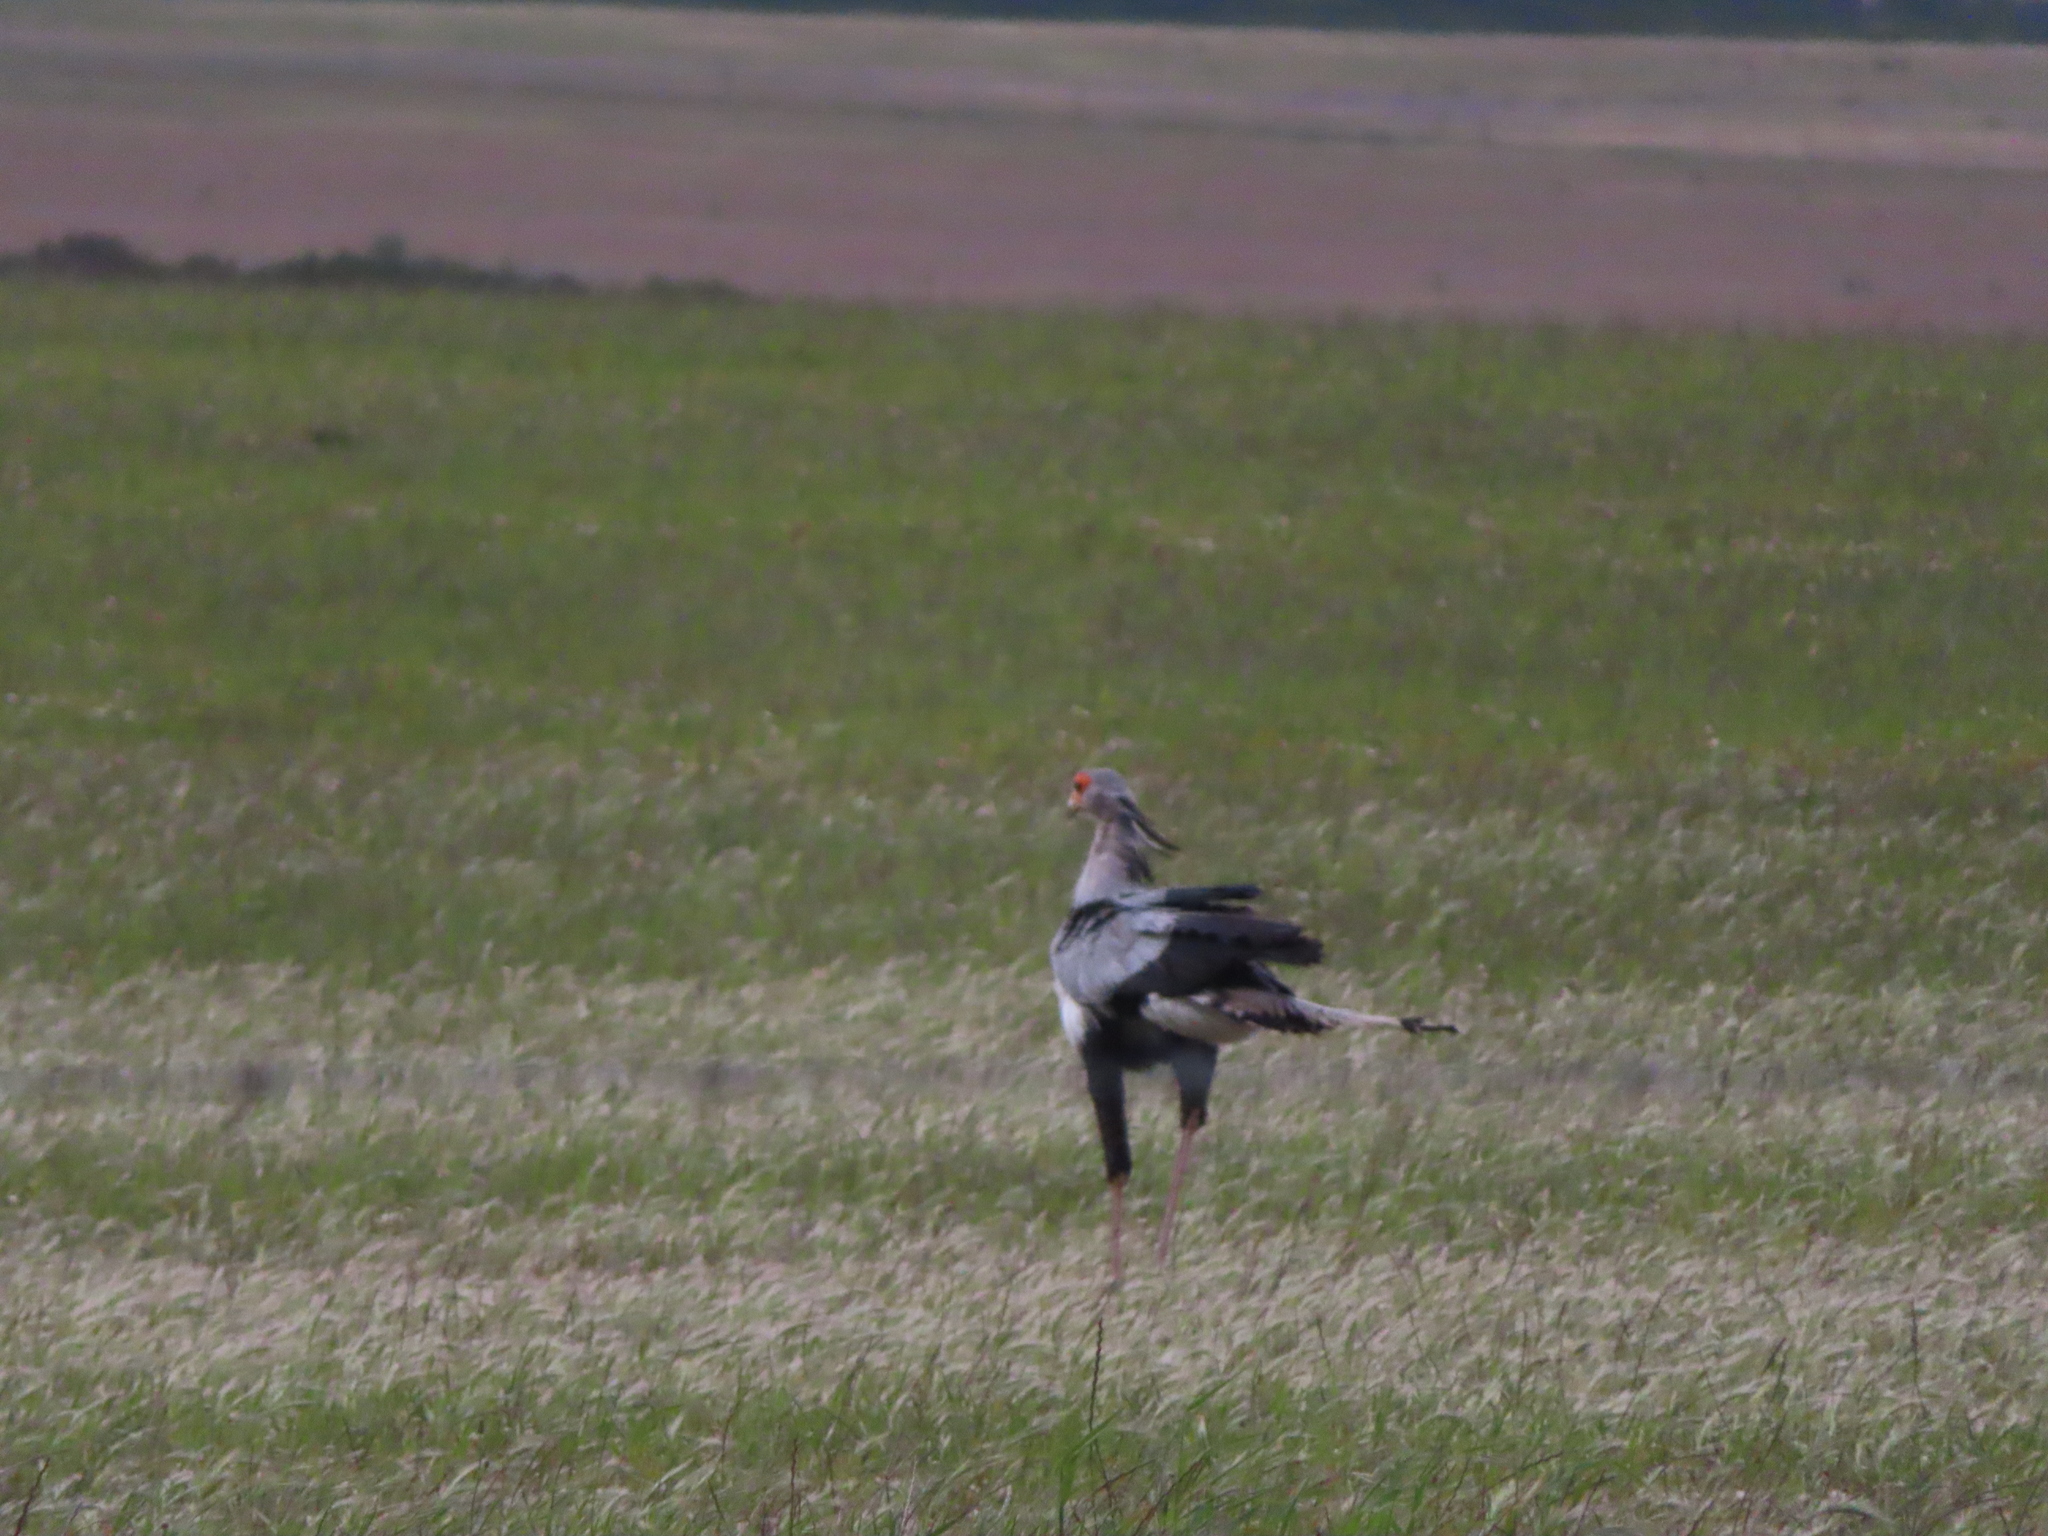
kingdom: Animalia
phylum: Chordata
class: Aves
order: Accipitriformes
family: Sagittariidae
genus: Sagittarius
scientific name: Sagittarius serpentarius
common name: Secretarybird
